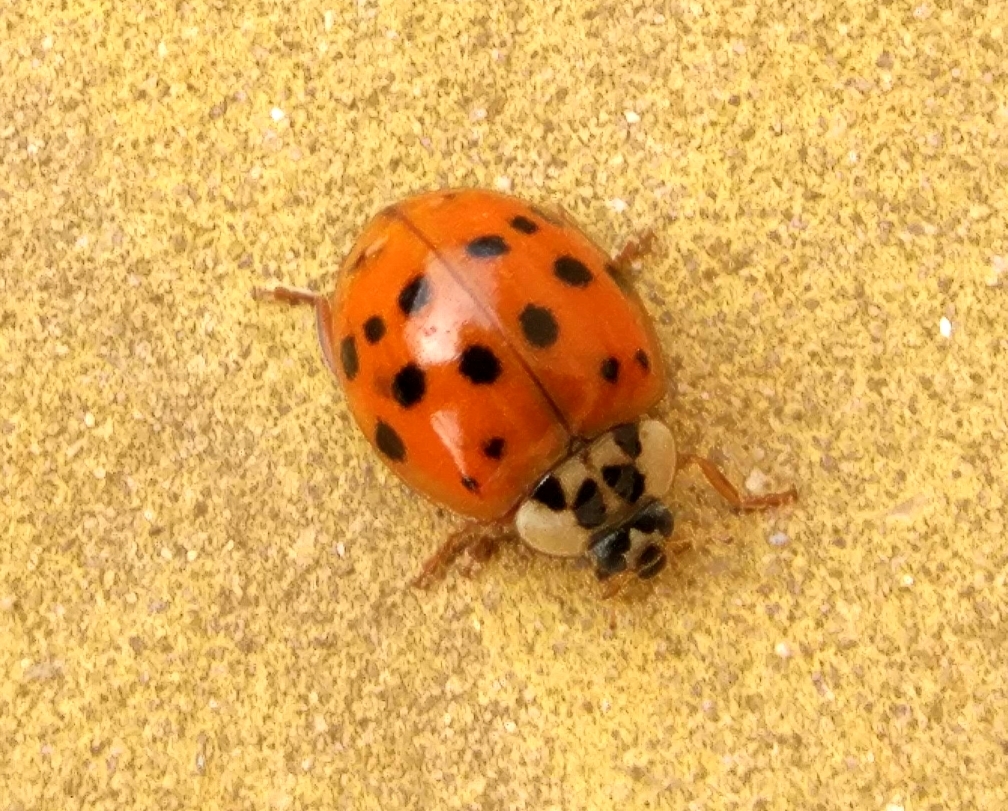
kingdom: Animalia
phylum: Arthropoda
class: Insecta
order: Coleoptera
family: Coccinellidae
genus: Harmonia
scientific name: Harmonia axyridis
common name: Harlequin ladybird
